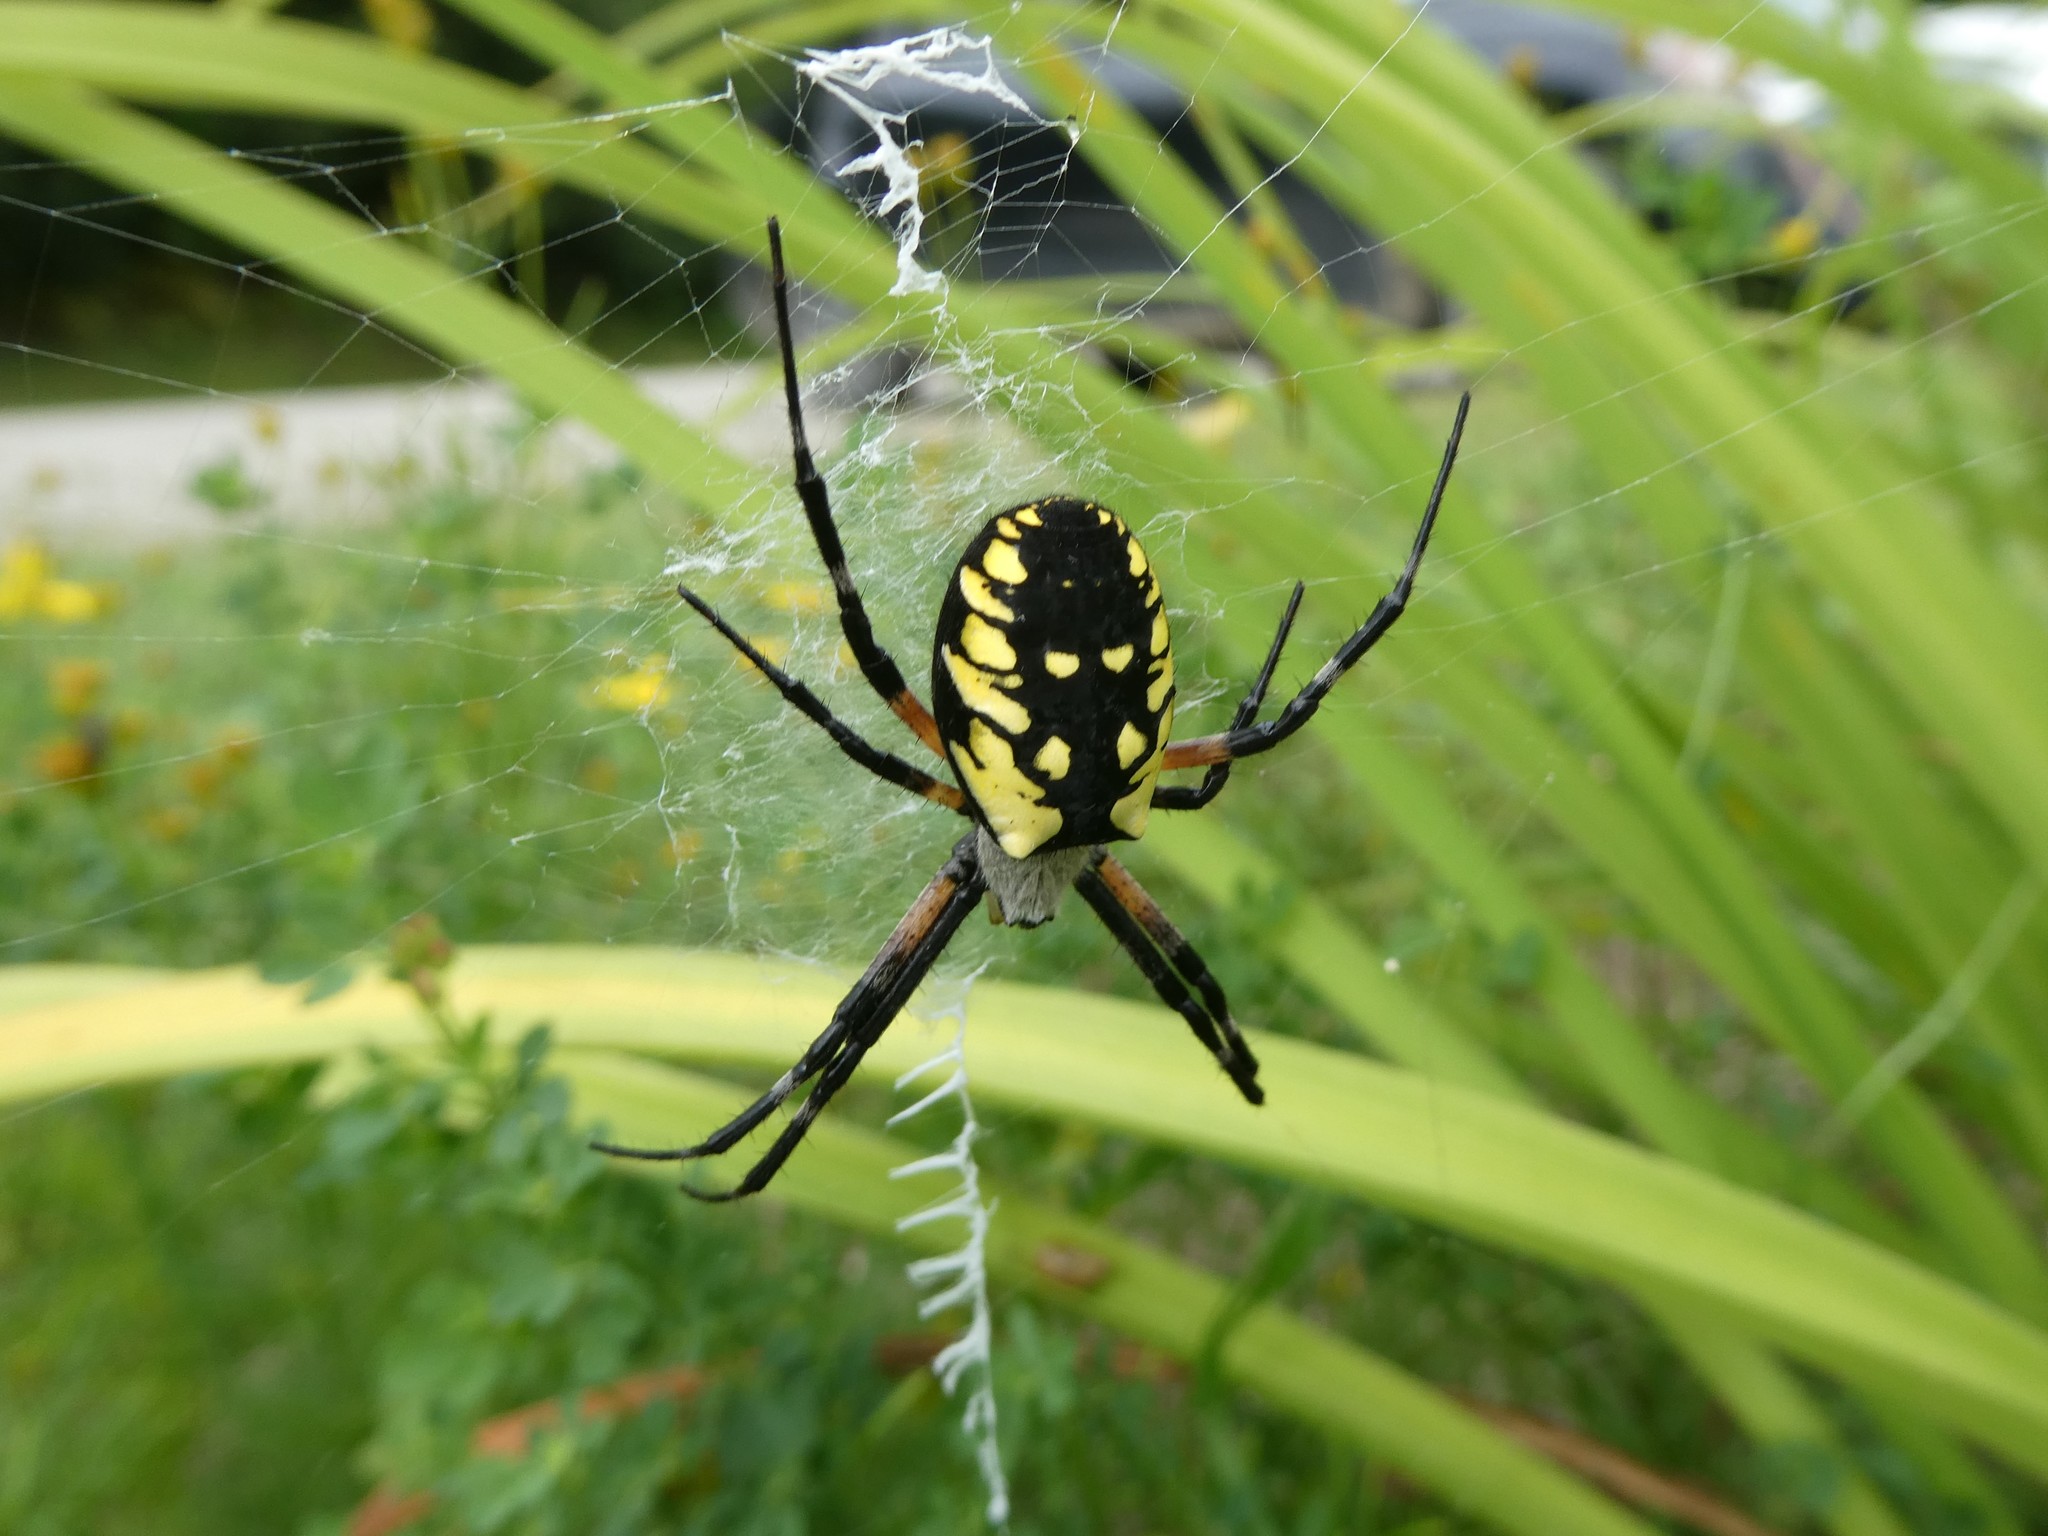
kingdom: Animalia
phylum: Arthropoda
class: Arachnida
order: Araneae
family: Araneidae
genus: Argiope
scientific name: Argiope aurantia
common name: Orb weavers
